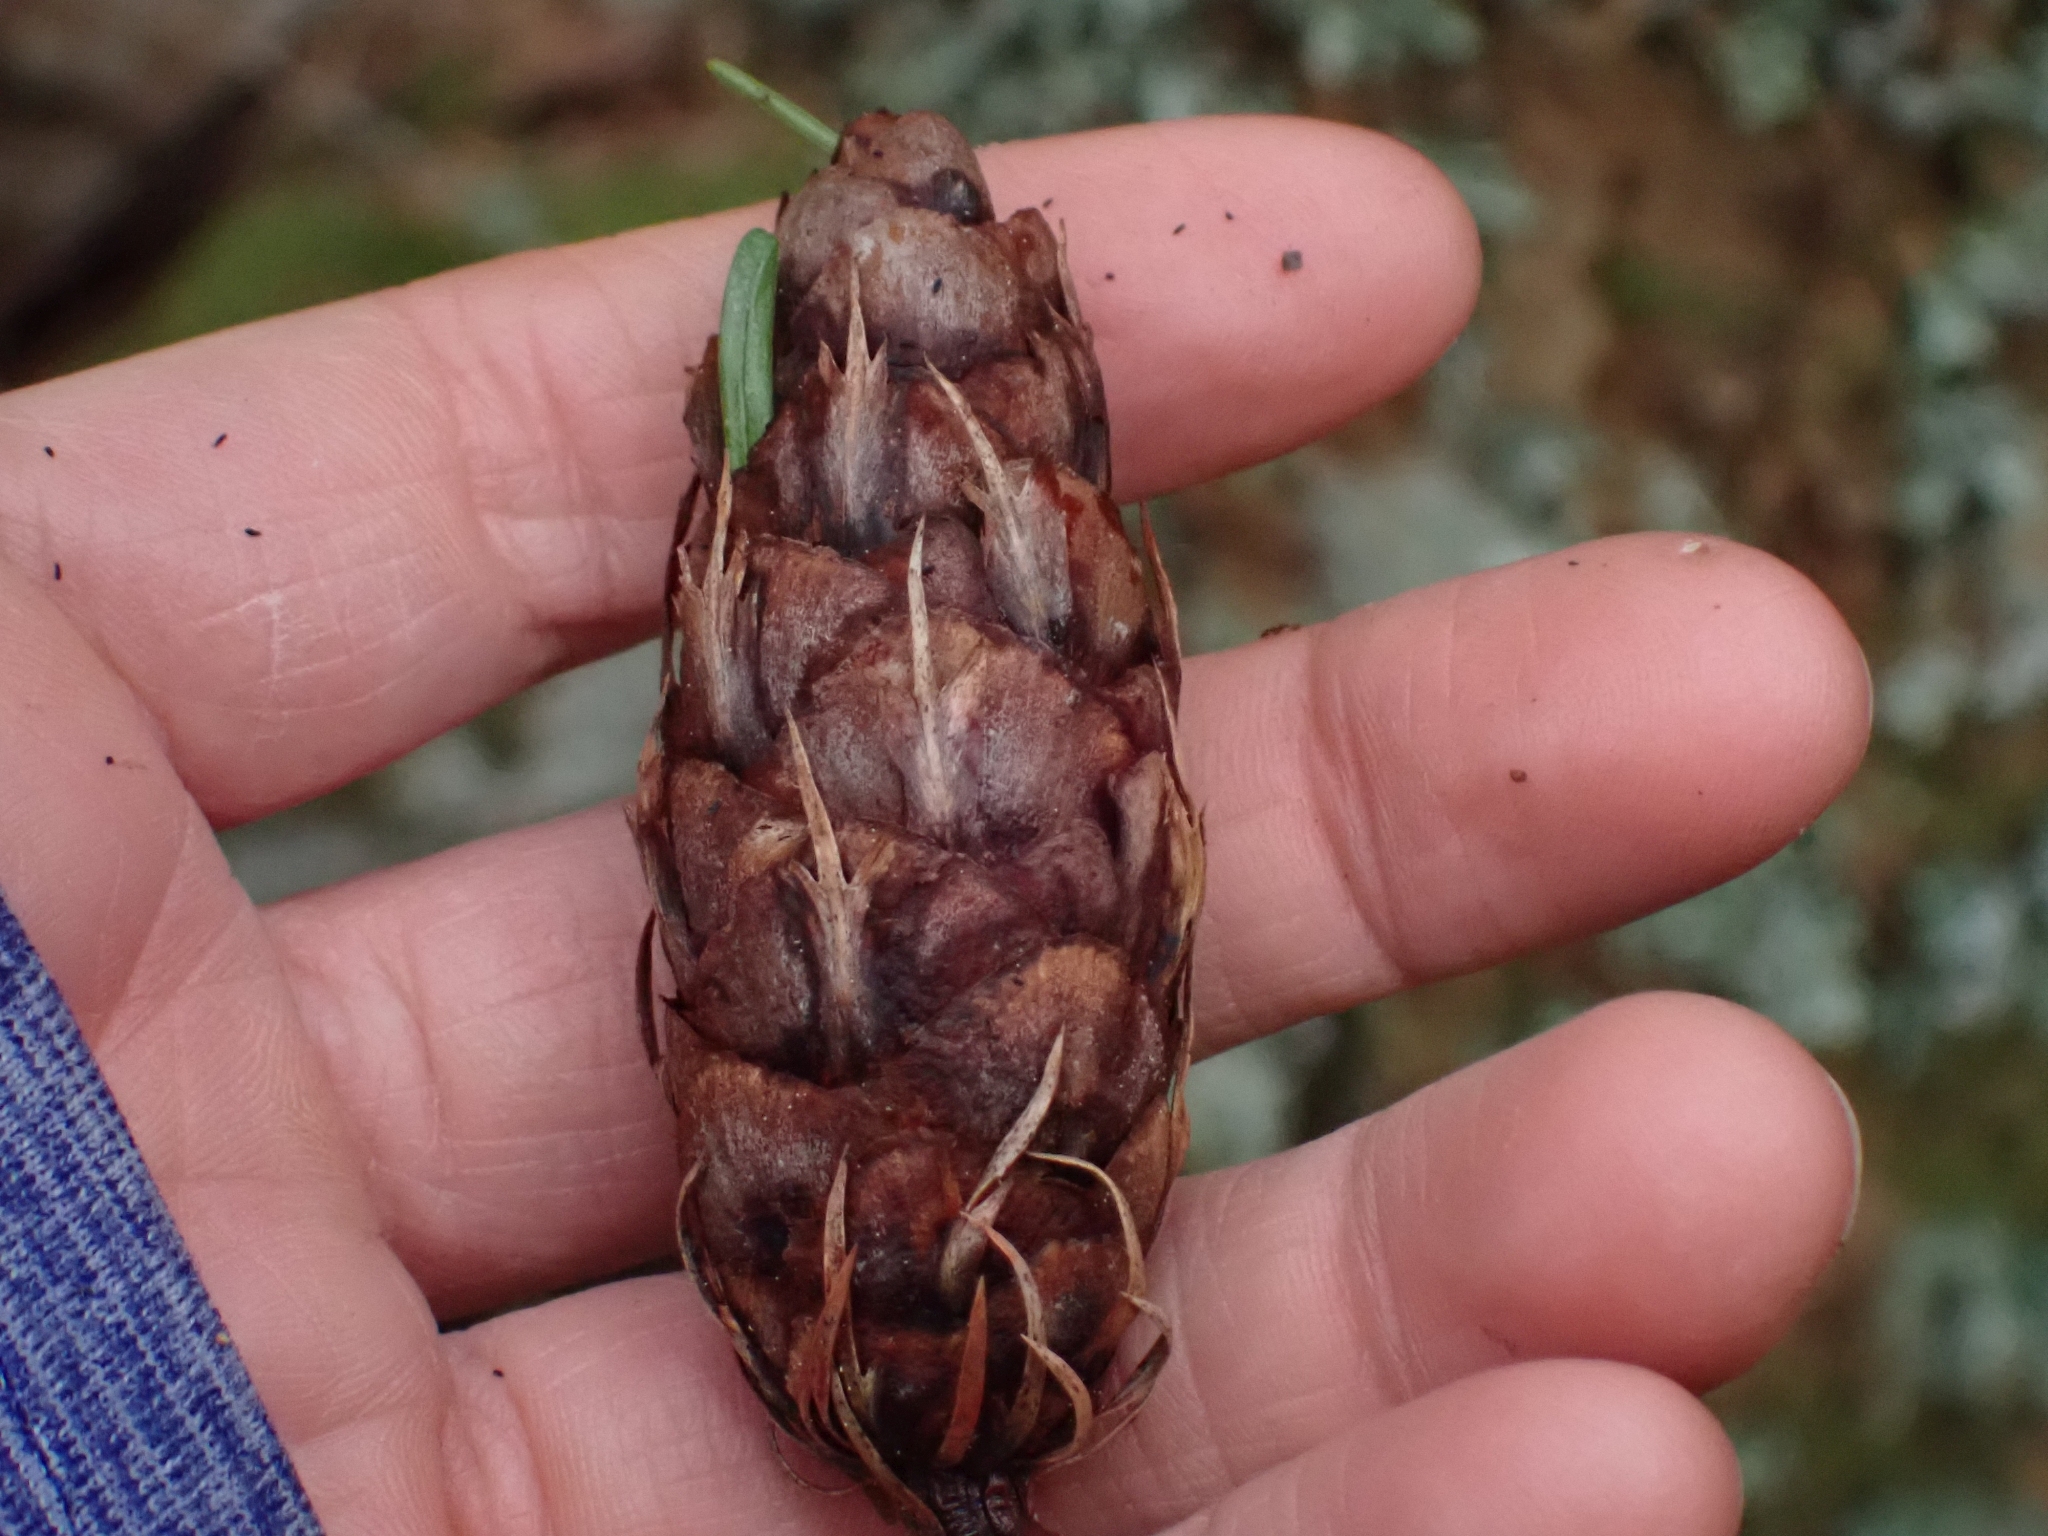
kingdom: Plantae
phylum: Tracheophyta
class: Pinopsida
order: Pinales
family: Pinaceae
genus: Pseudotsuga
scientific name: Pseudotsuga menziesii
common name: Douglas fir
